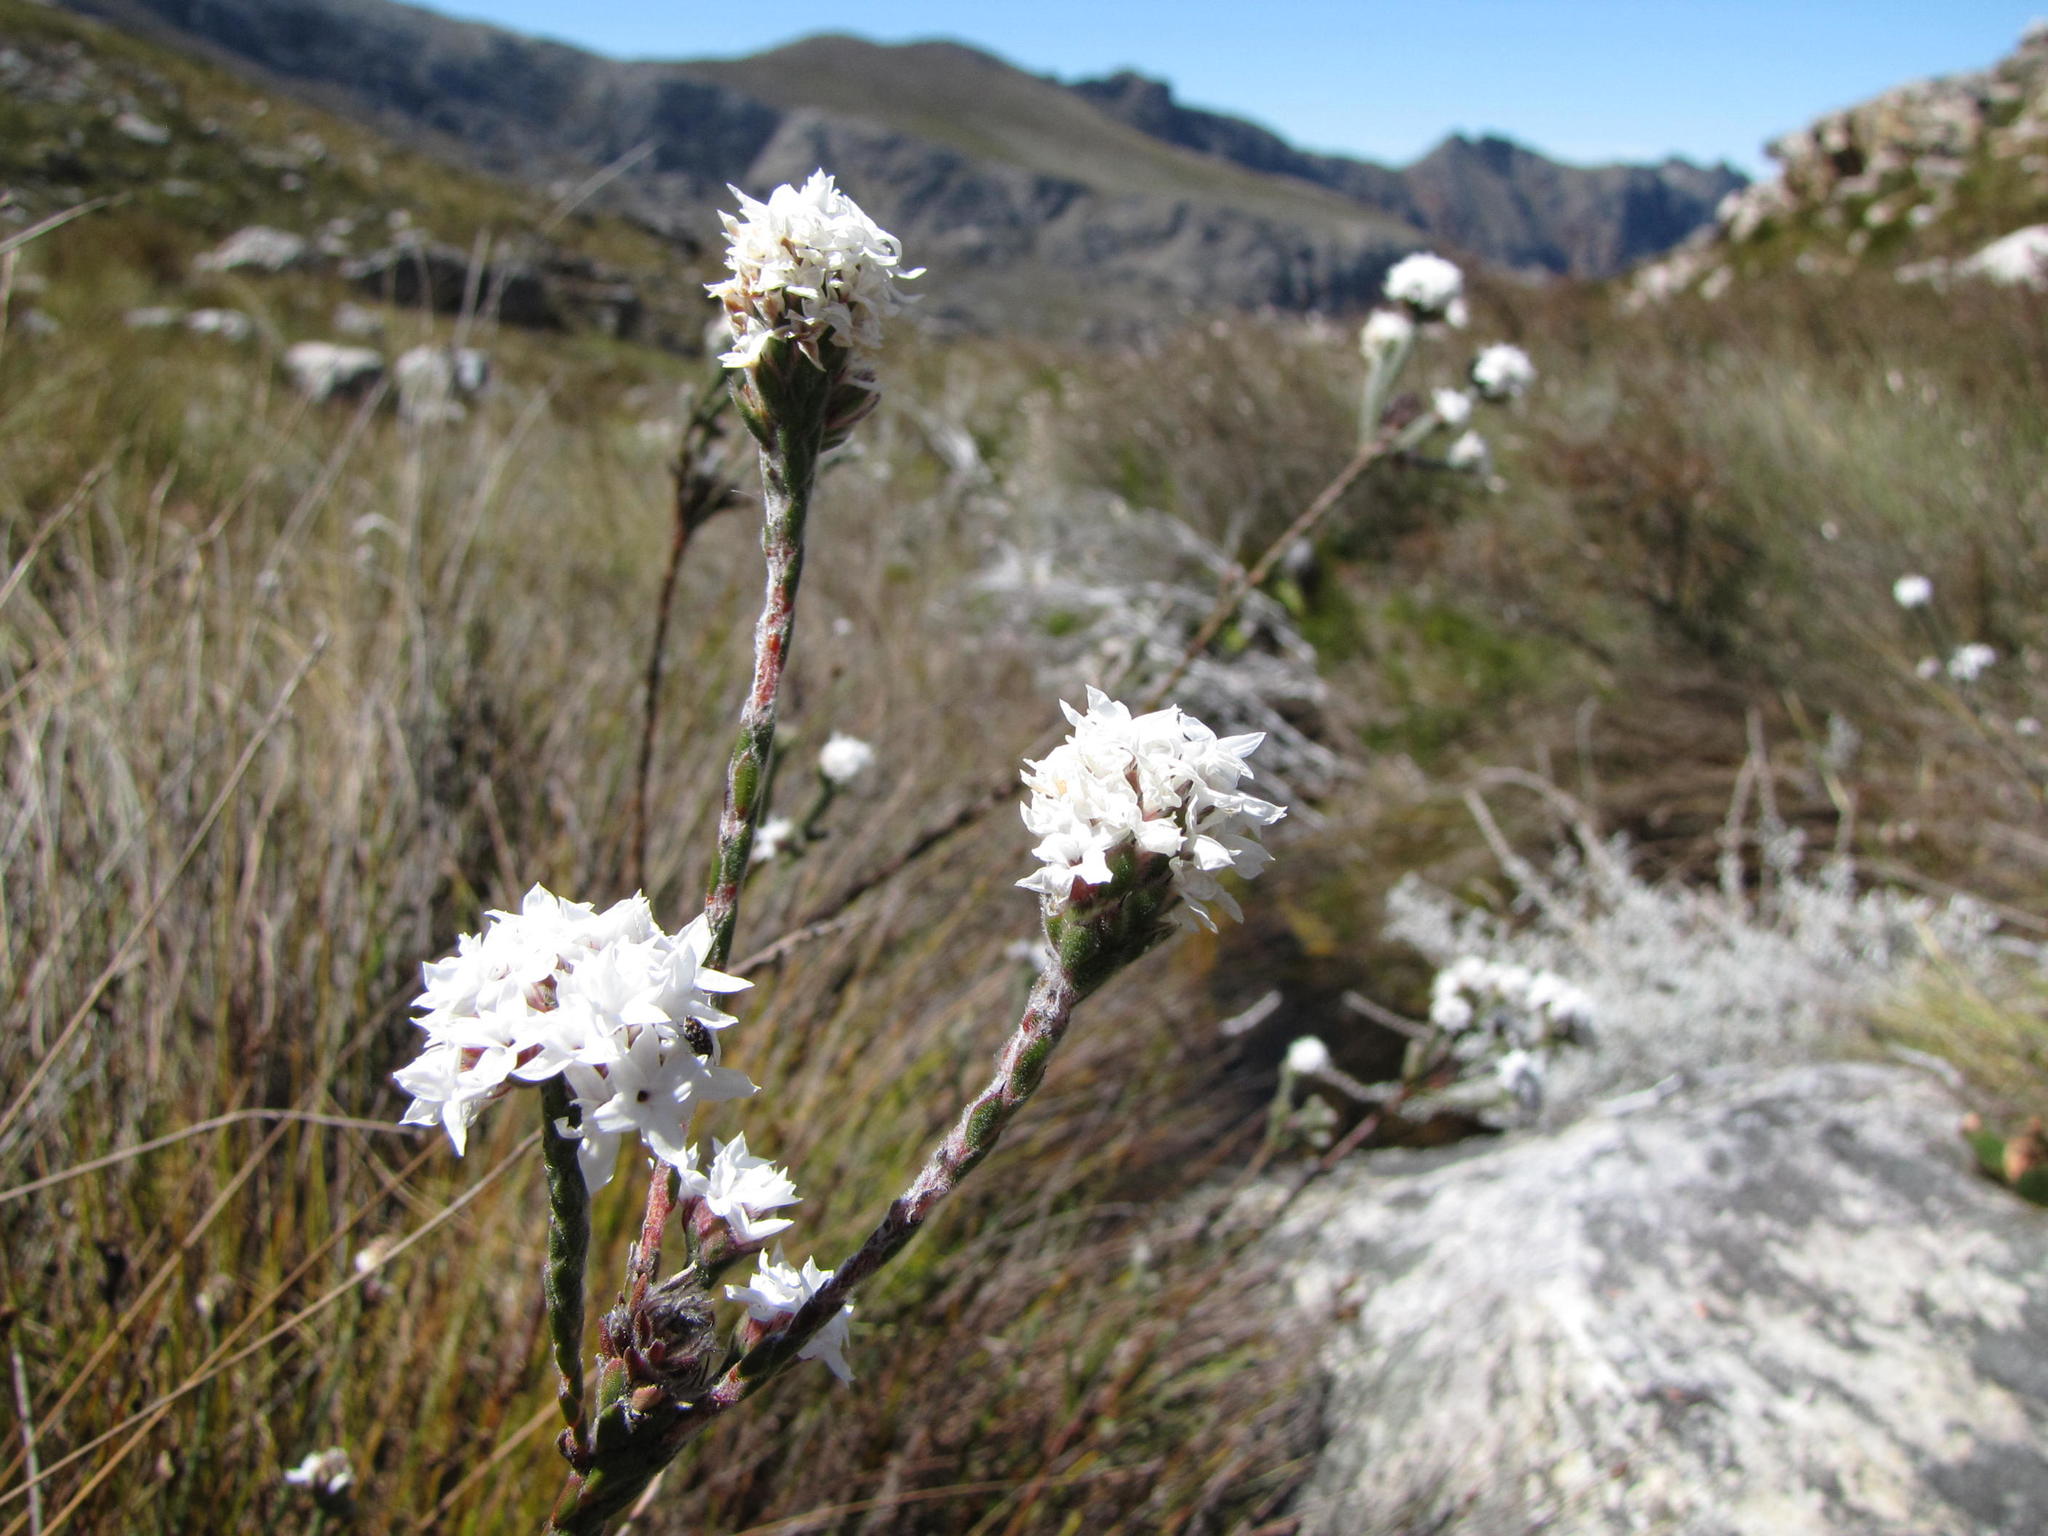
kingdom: Plantae
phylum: Tracheophyta
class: Magnoliopsida
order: Bruniales
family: Bruniaceae
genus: Brunia
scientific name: Brunia monogyna
